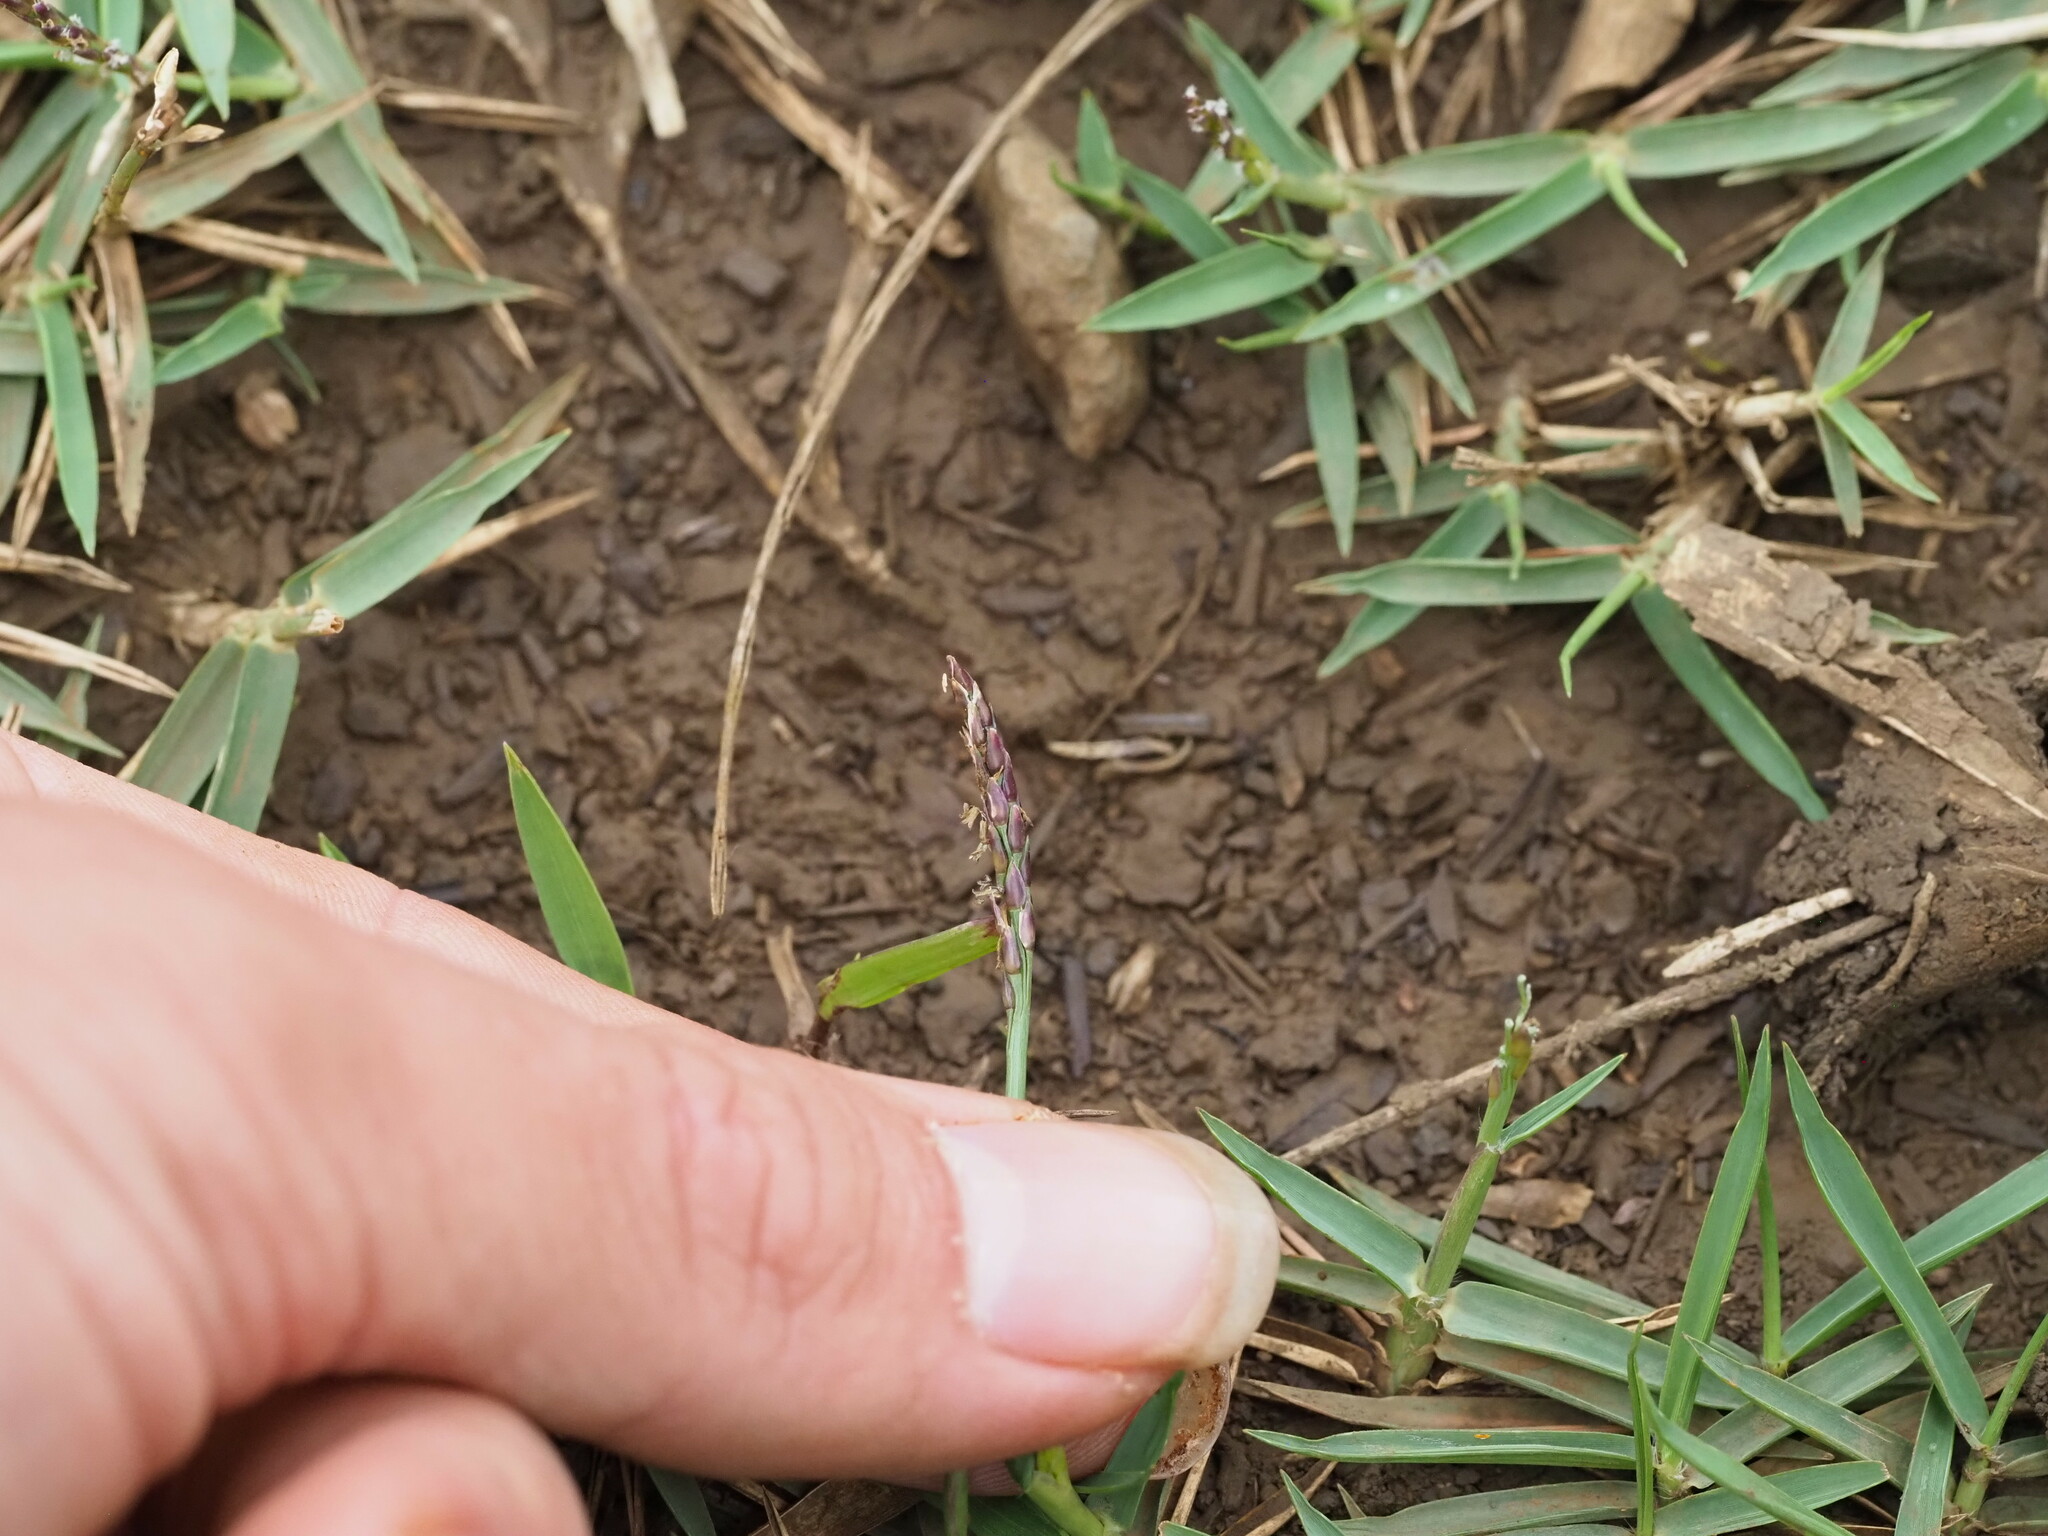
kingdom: Plantae
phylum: Tracheophyta
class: Liliopsida
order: Poales
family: Poaceae
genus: Zoysia
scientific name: Zoysia matrella
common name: Manila grass
